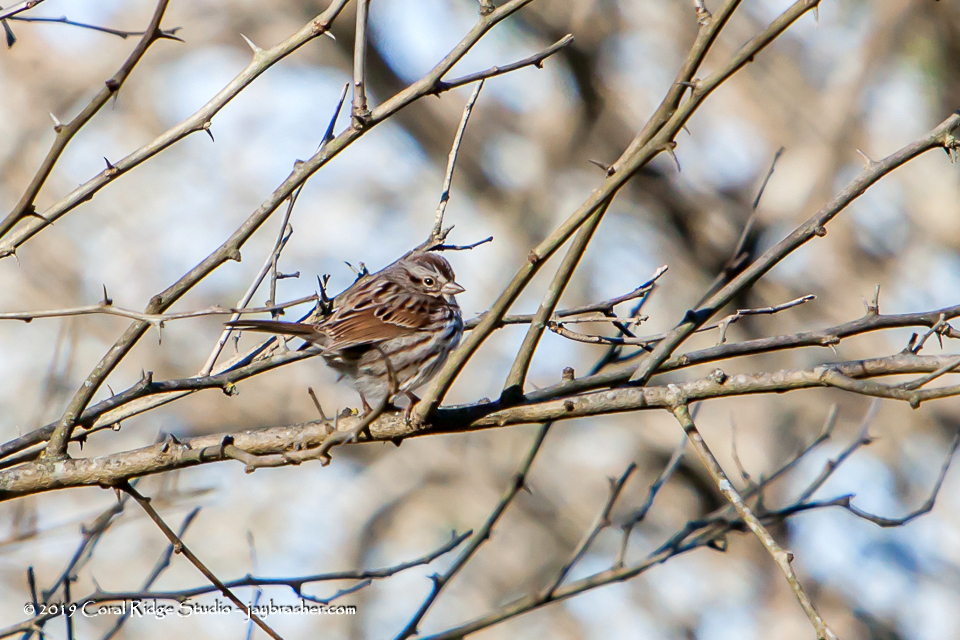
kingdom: Animalia
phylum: Chordata
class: Aves
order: Passeriformes
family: Passerellidae
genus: Melospiza
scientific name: Melospiza melodia
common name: Song sparrow
